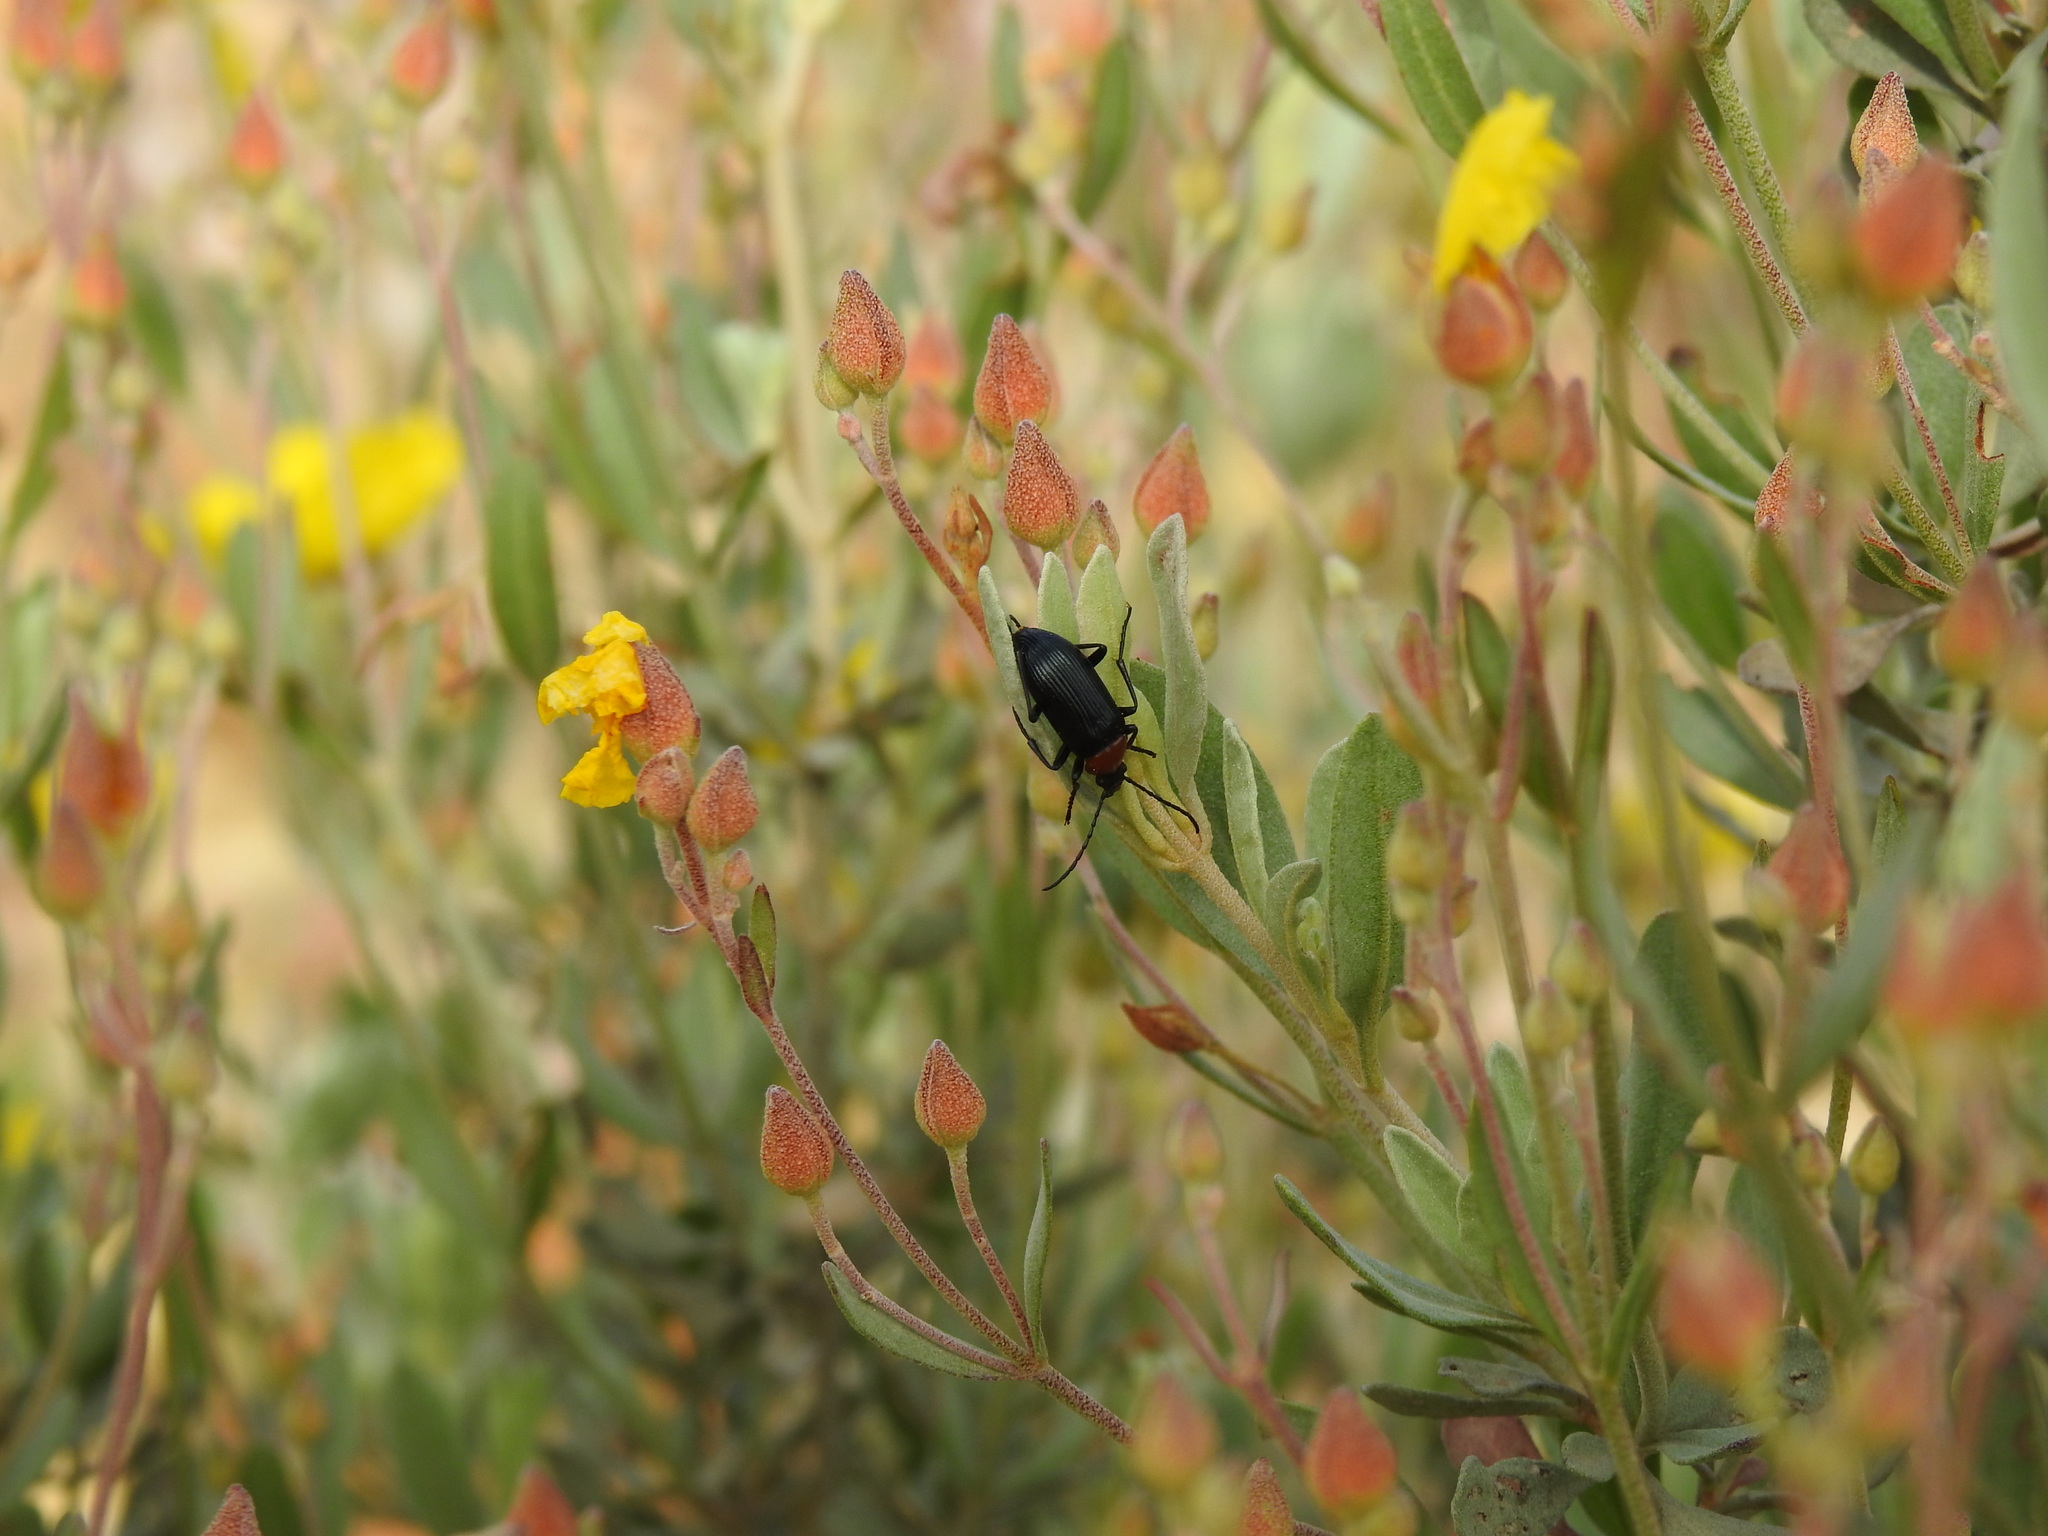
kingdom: Animalia
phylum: Arthropoda
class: Insecta
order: Coleoptera
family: Tenebrionidae
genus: Heliotaurus
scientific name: Heliotaurus ruficollis
